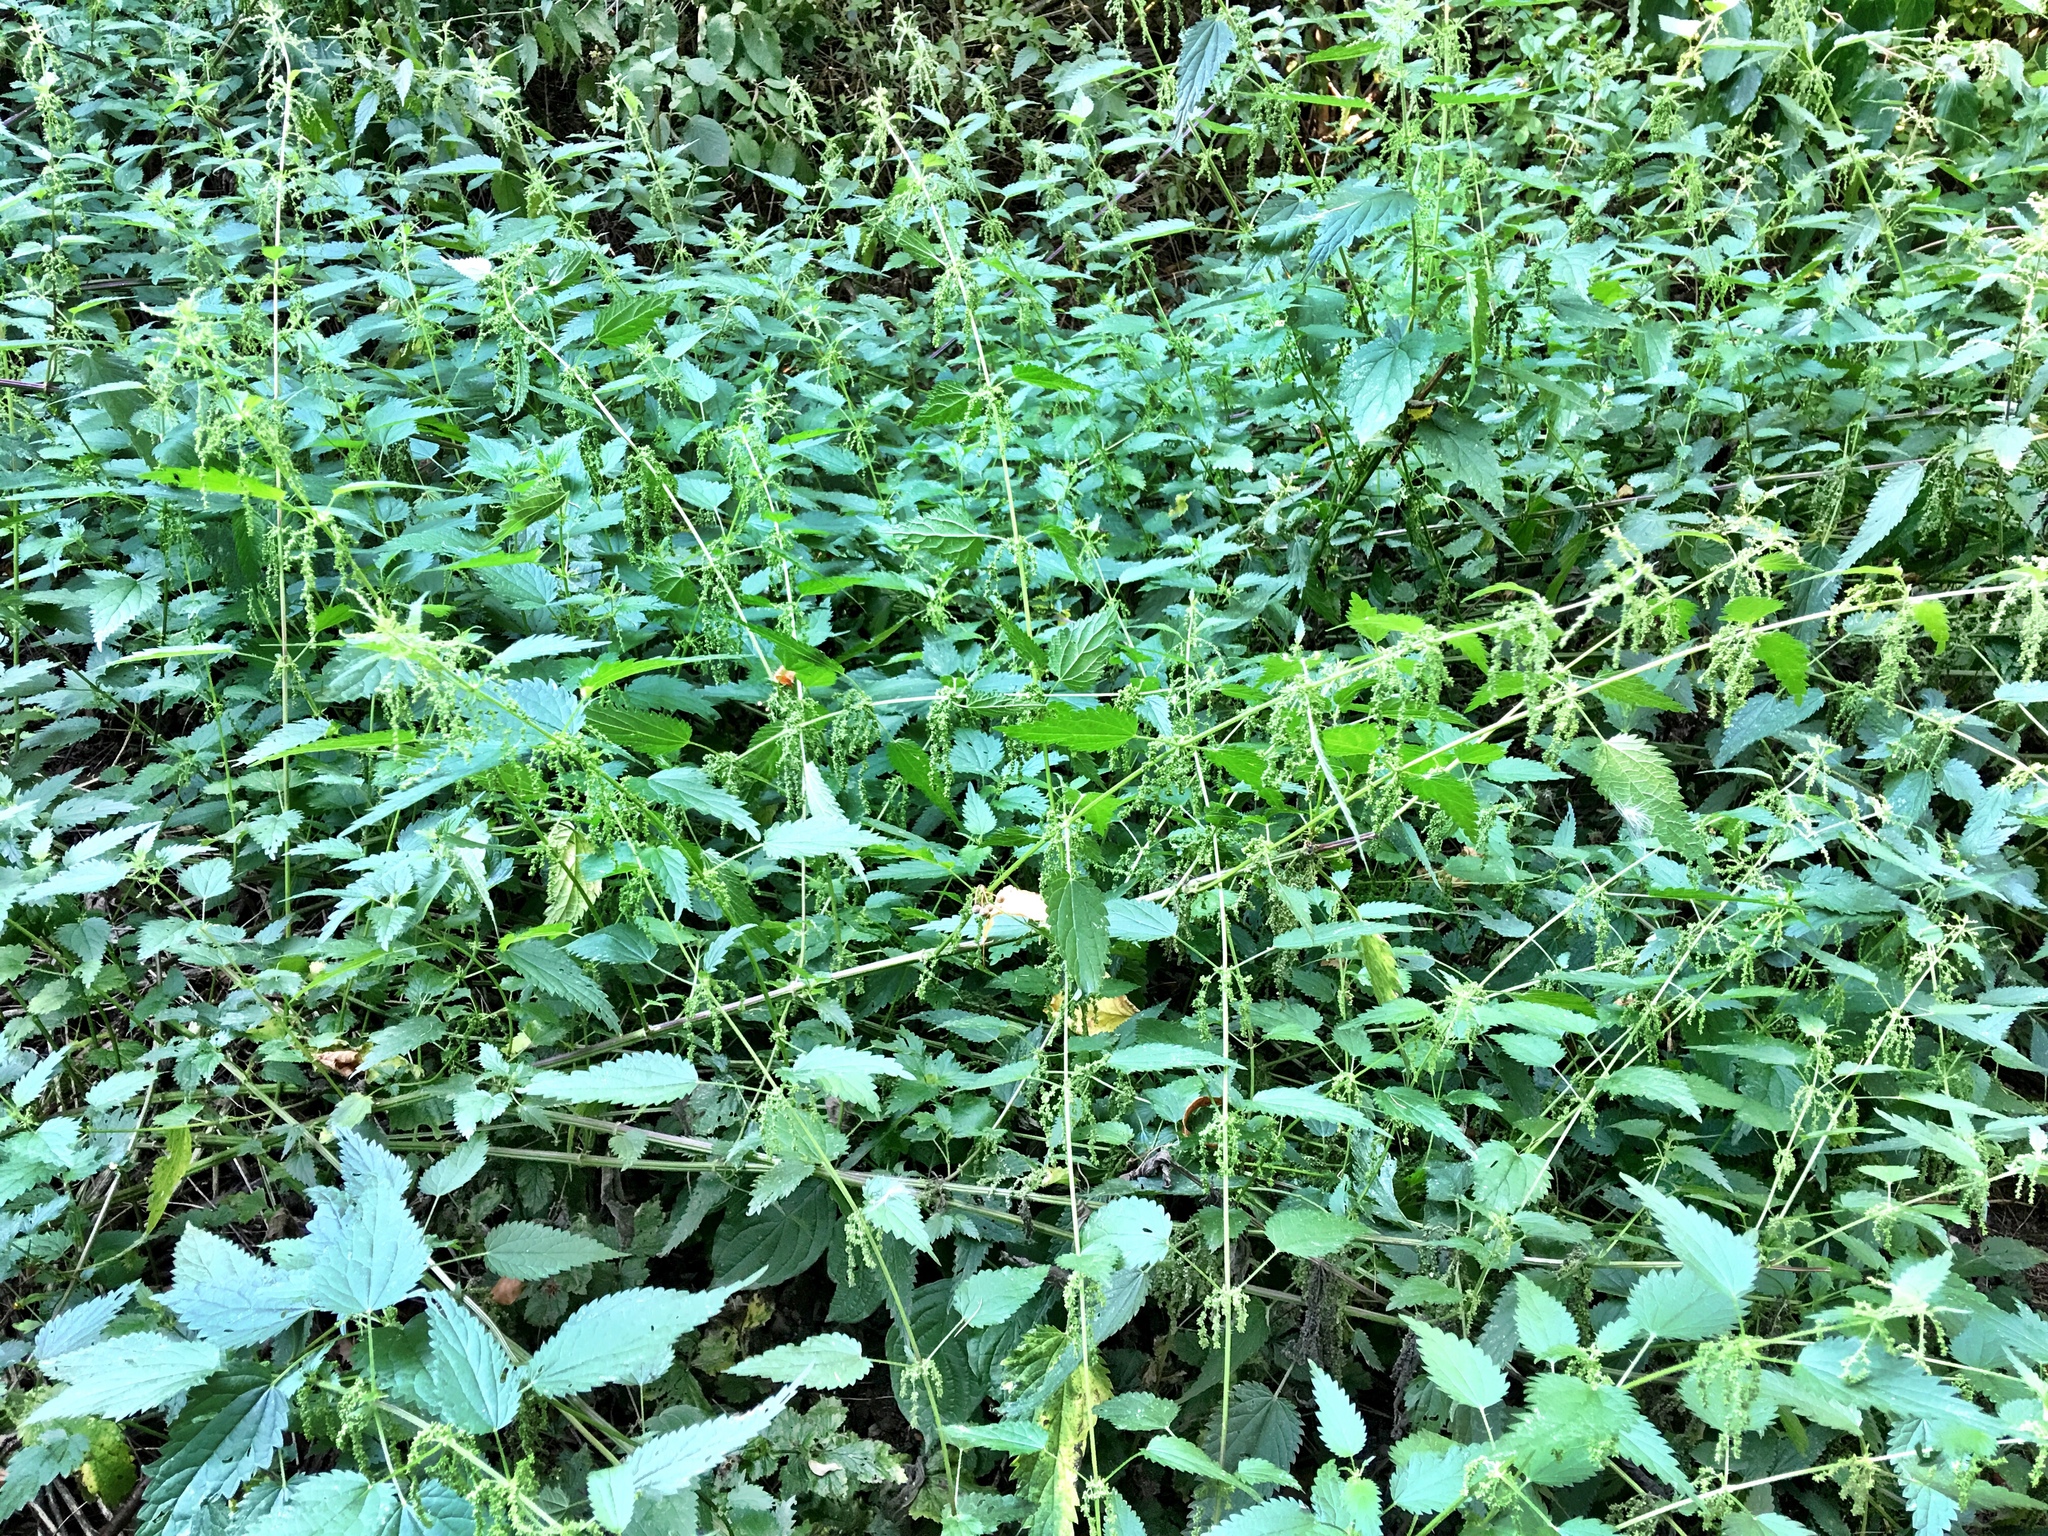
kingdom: Plantae
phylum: Tracheophyta
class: Magnoliopsida
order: Rosales
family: Urticaceae
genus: Urtica
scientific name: Urtica dioica
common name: Common nettle
